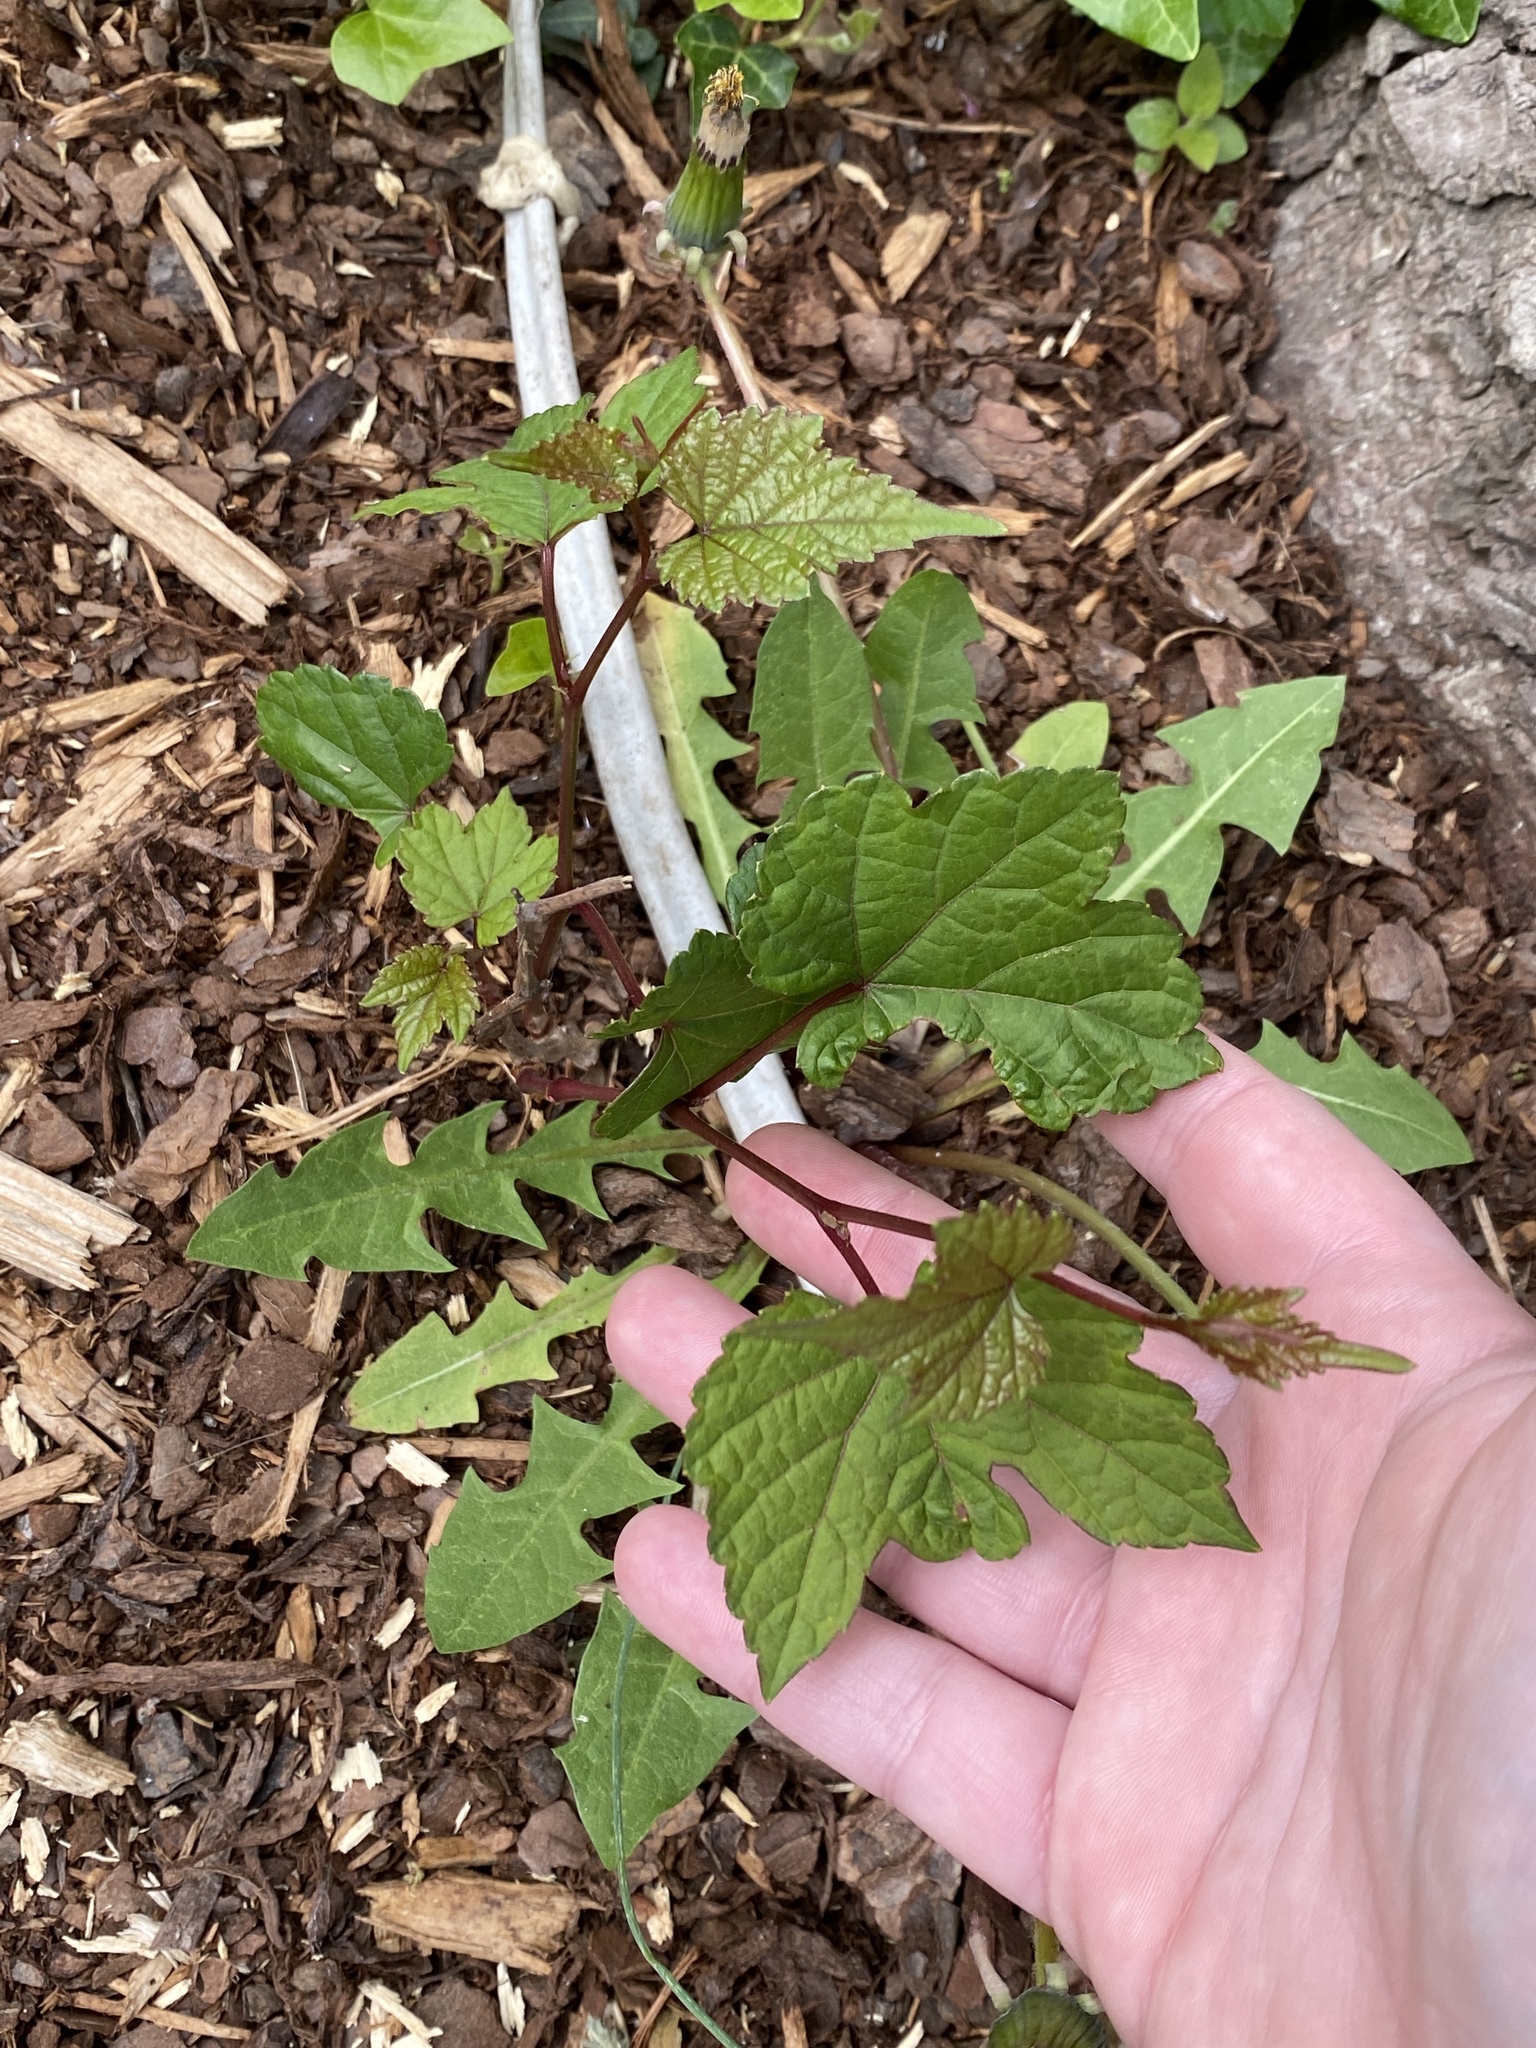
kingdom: Plantae
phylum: Tracheophyta
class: Magnoliopsida
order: Vitales
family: Vitaceae
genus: Ampelopsis
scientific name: Ampelopsis glandulosa
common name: Amur peppervine
